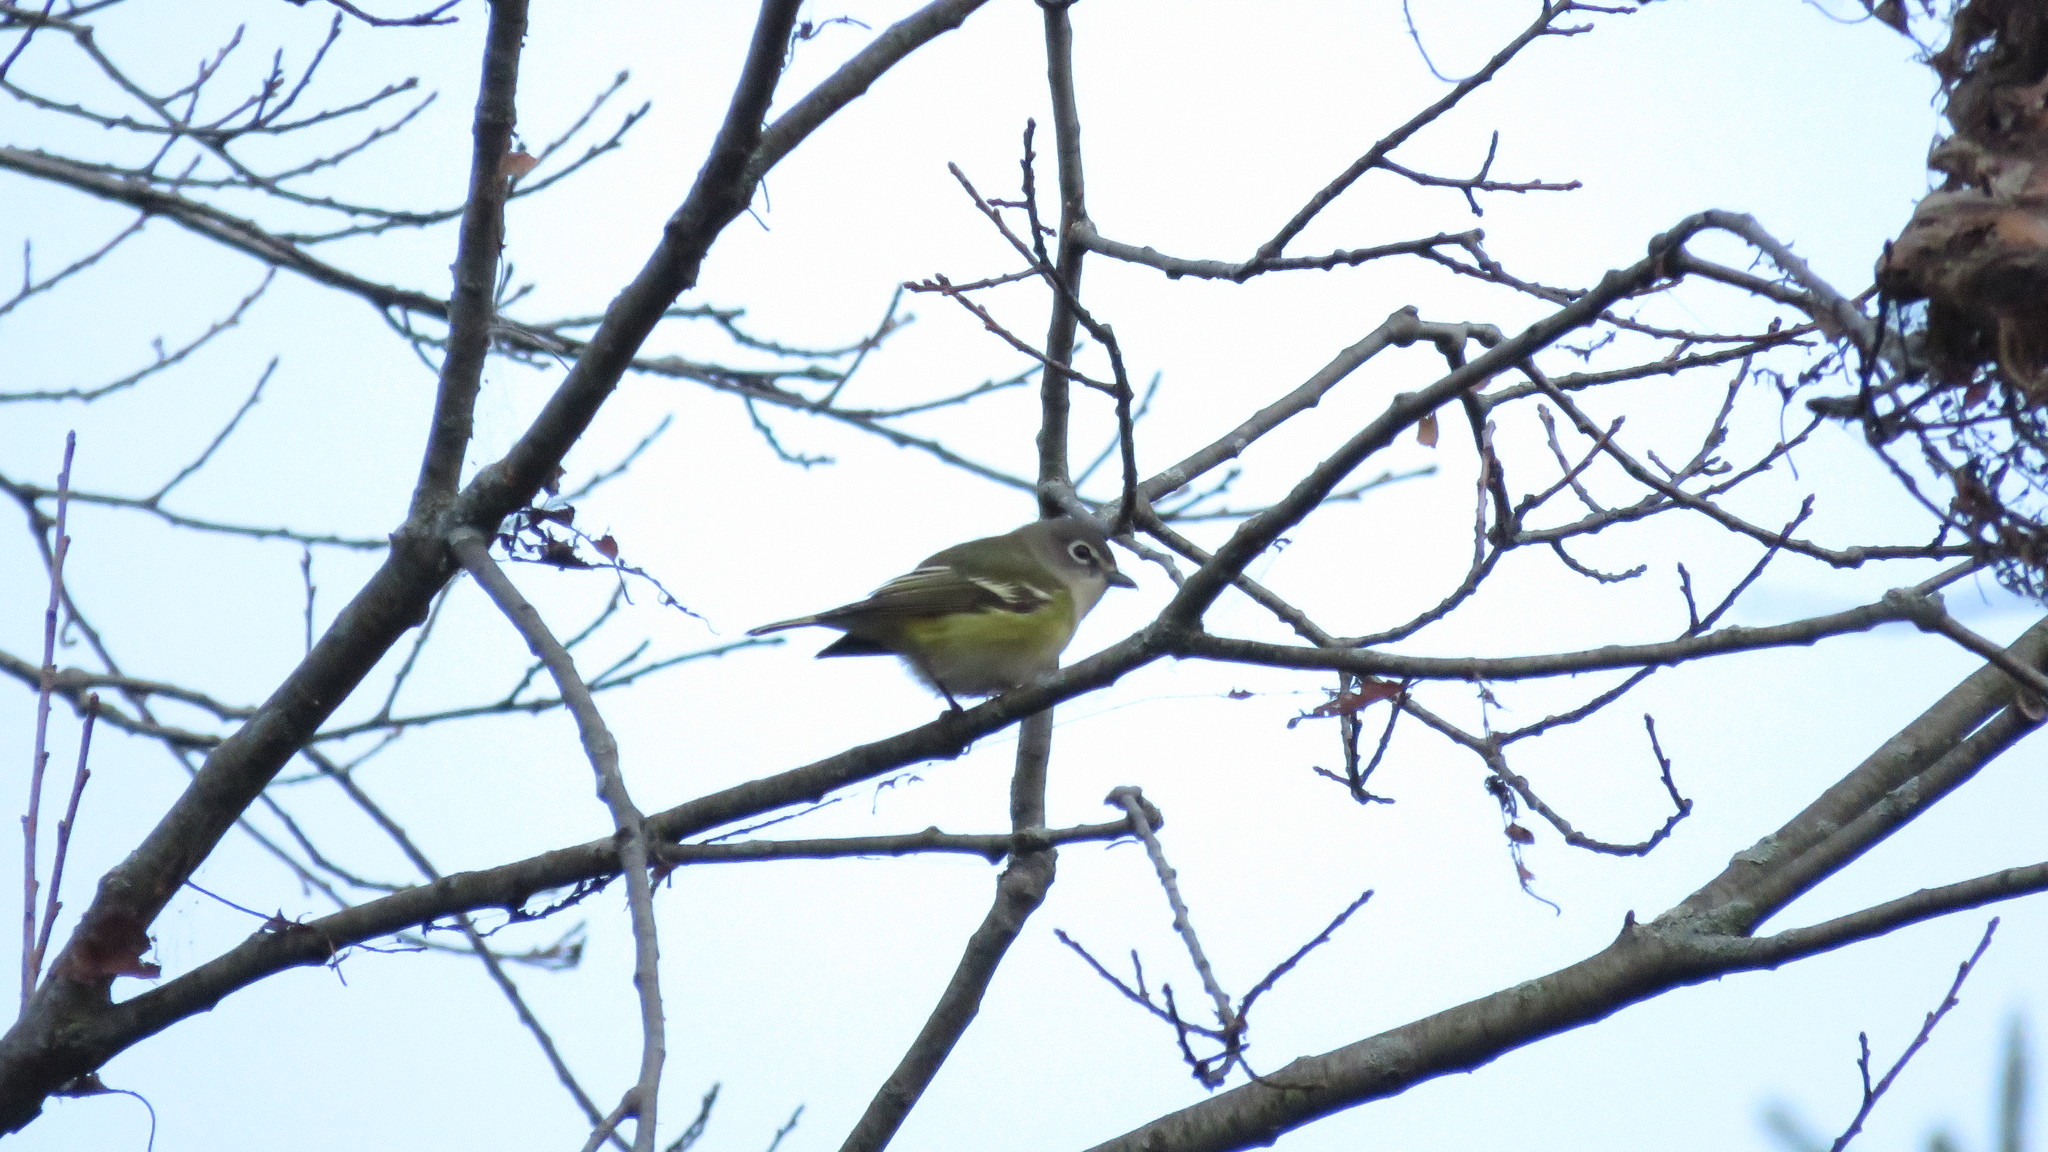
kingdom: Animalia
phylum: Chordata
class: Aves
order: Passeriformes
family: Vireonidae
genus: Vireo
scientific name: Vireo solitarius
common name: Blue-headed vireo
